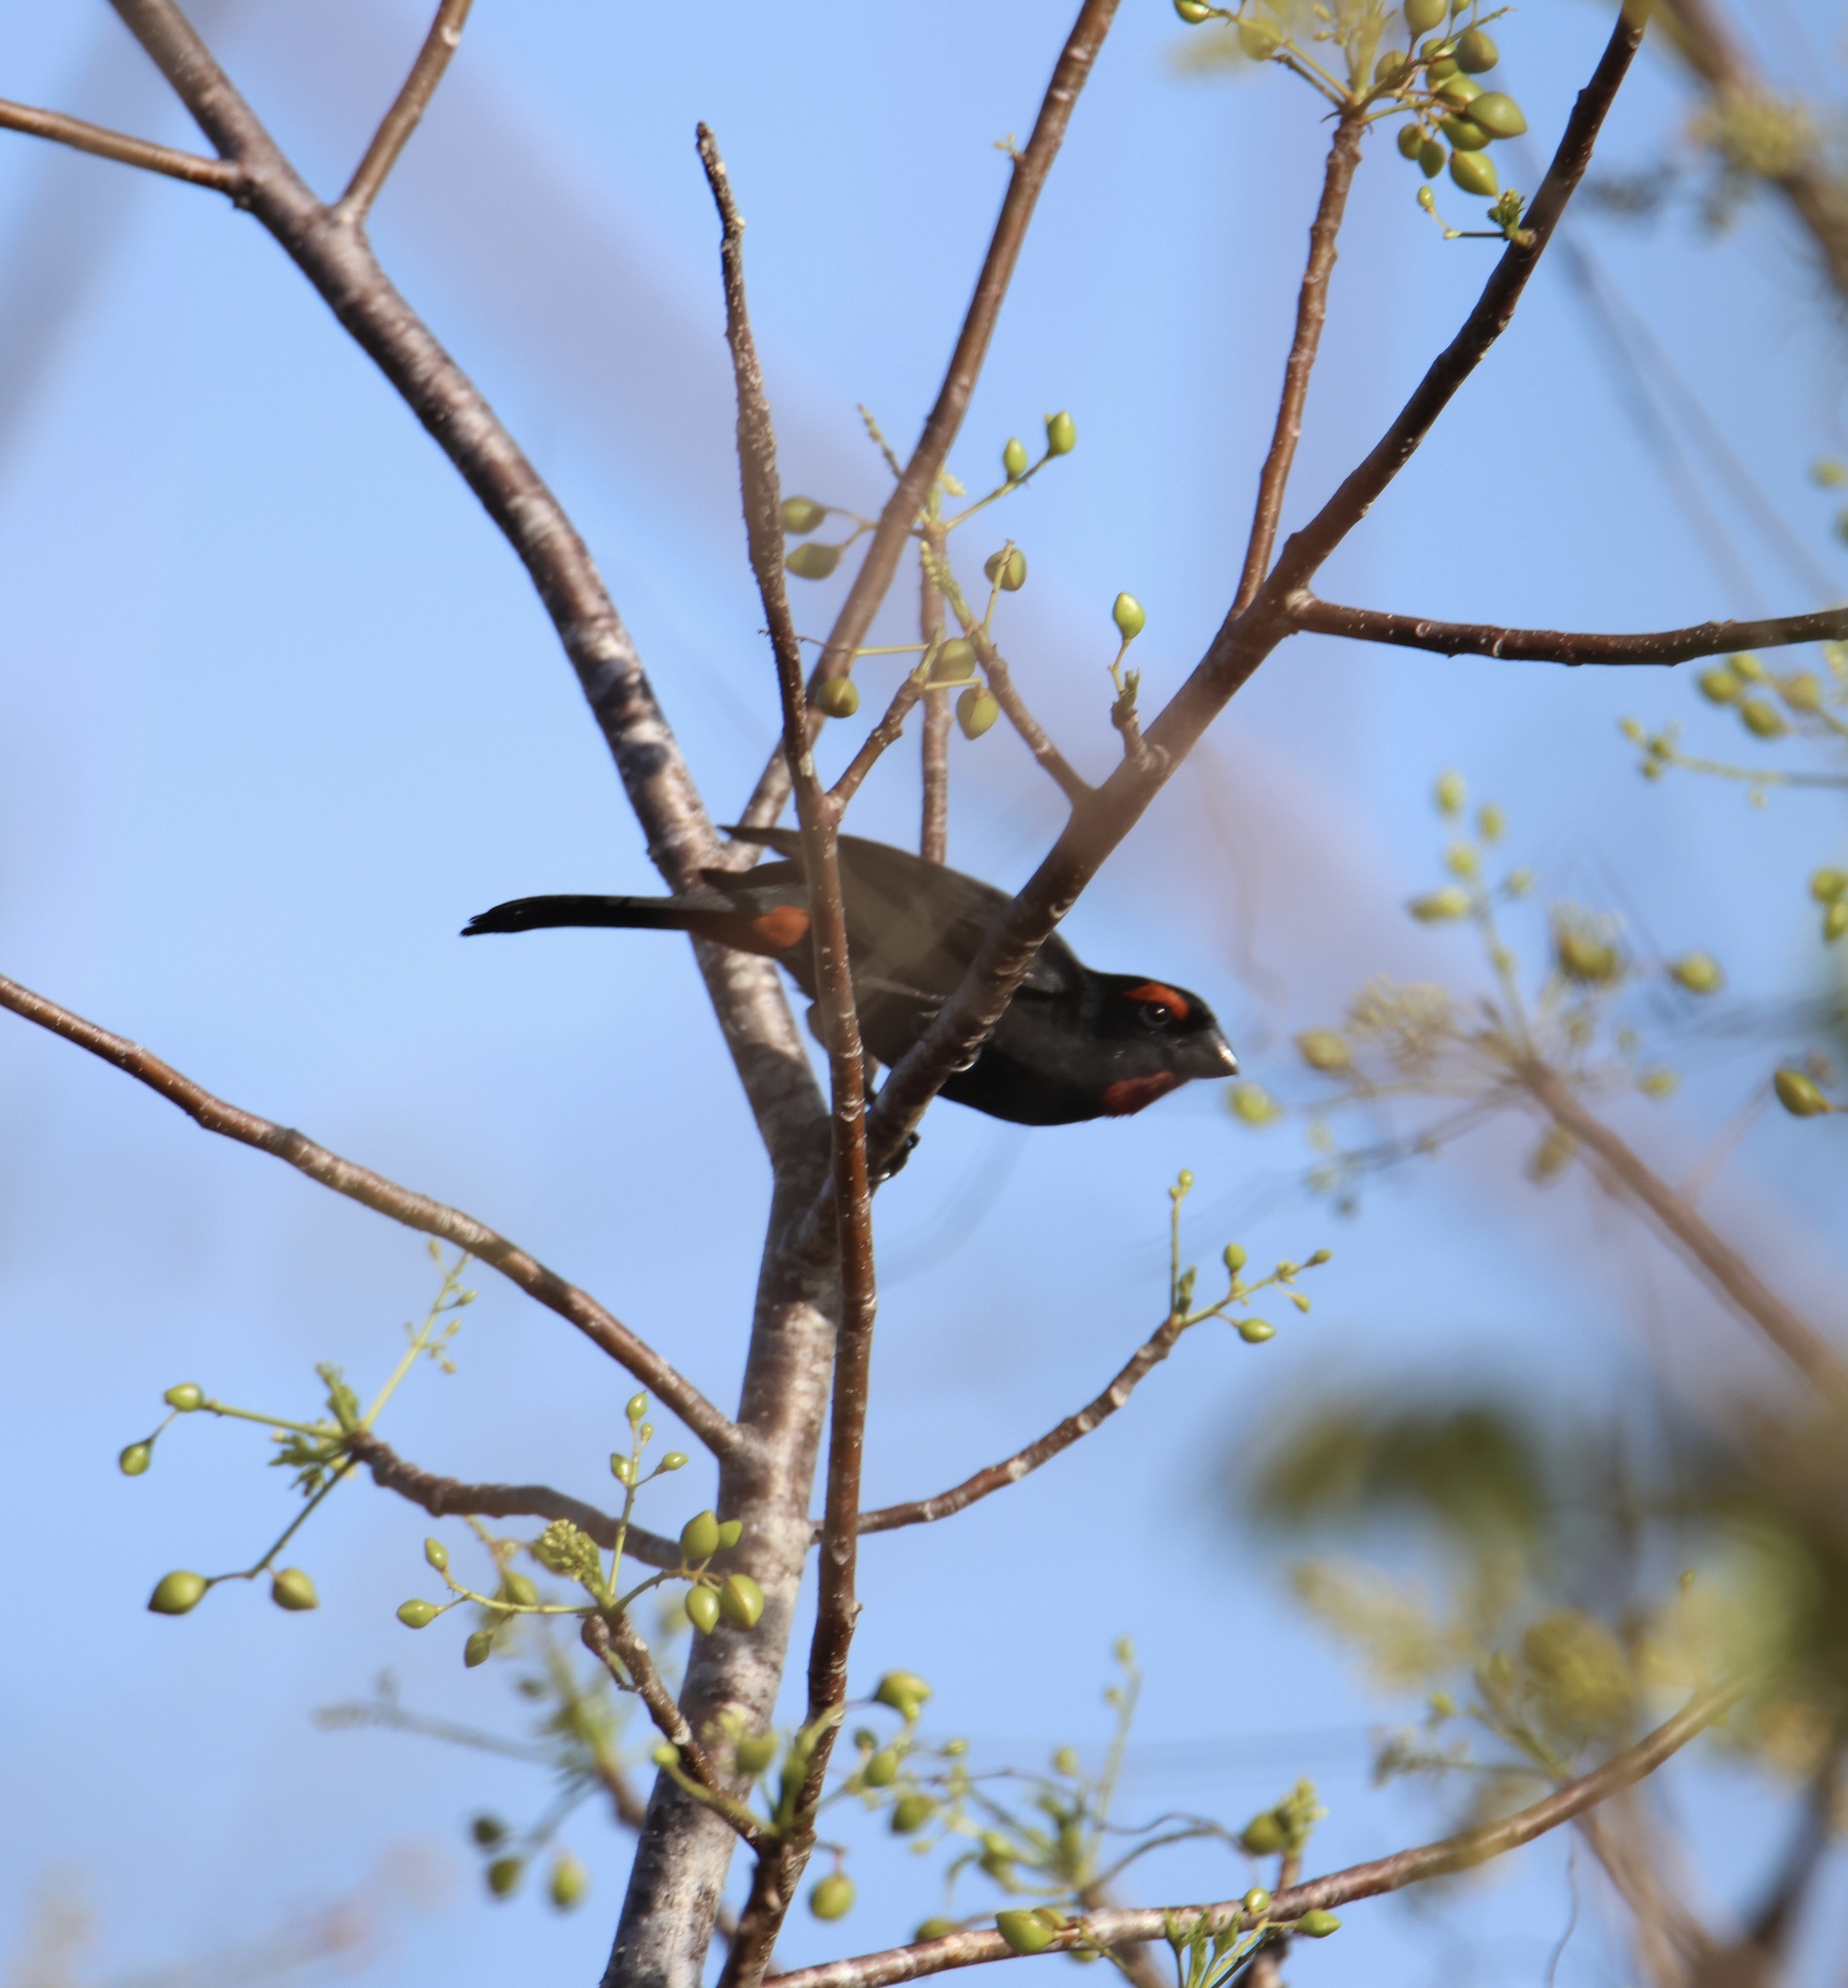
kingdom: Animalia
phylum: Chordata
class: Aves
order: Passeriformes
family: Thraupidae
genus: Melopyrrha
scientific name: Melopyrrha violacea
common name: Greater antillean bullfinch
